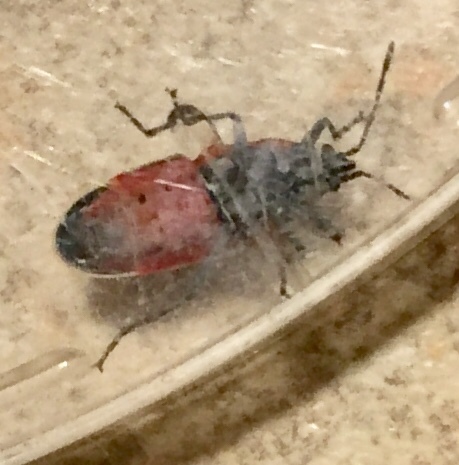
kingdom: Animalia
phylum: Arthropoda
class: Insecta
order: Hemiptera
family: Lygaeidae
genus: Neacoryphus
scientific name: Neacoryphus bicrucis
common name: Lygaeid bug
